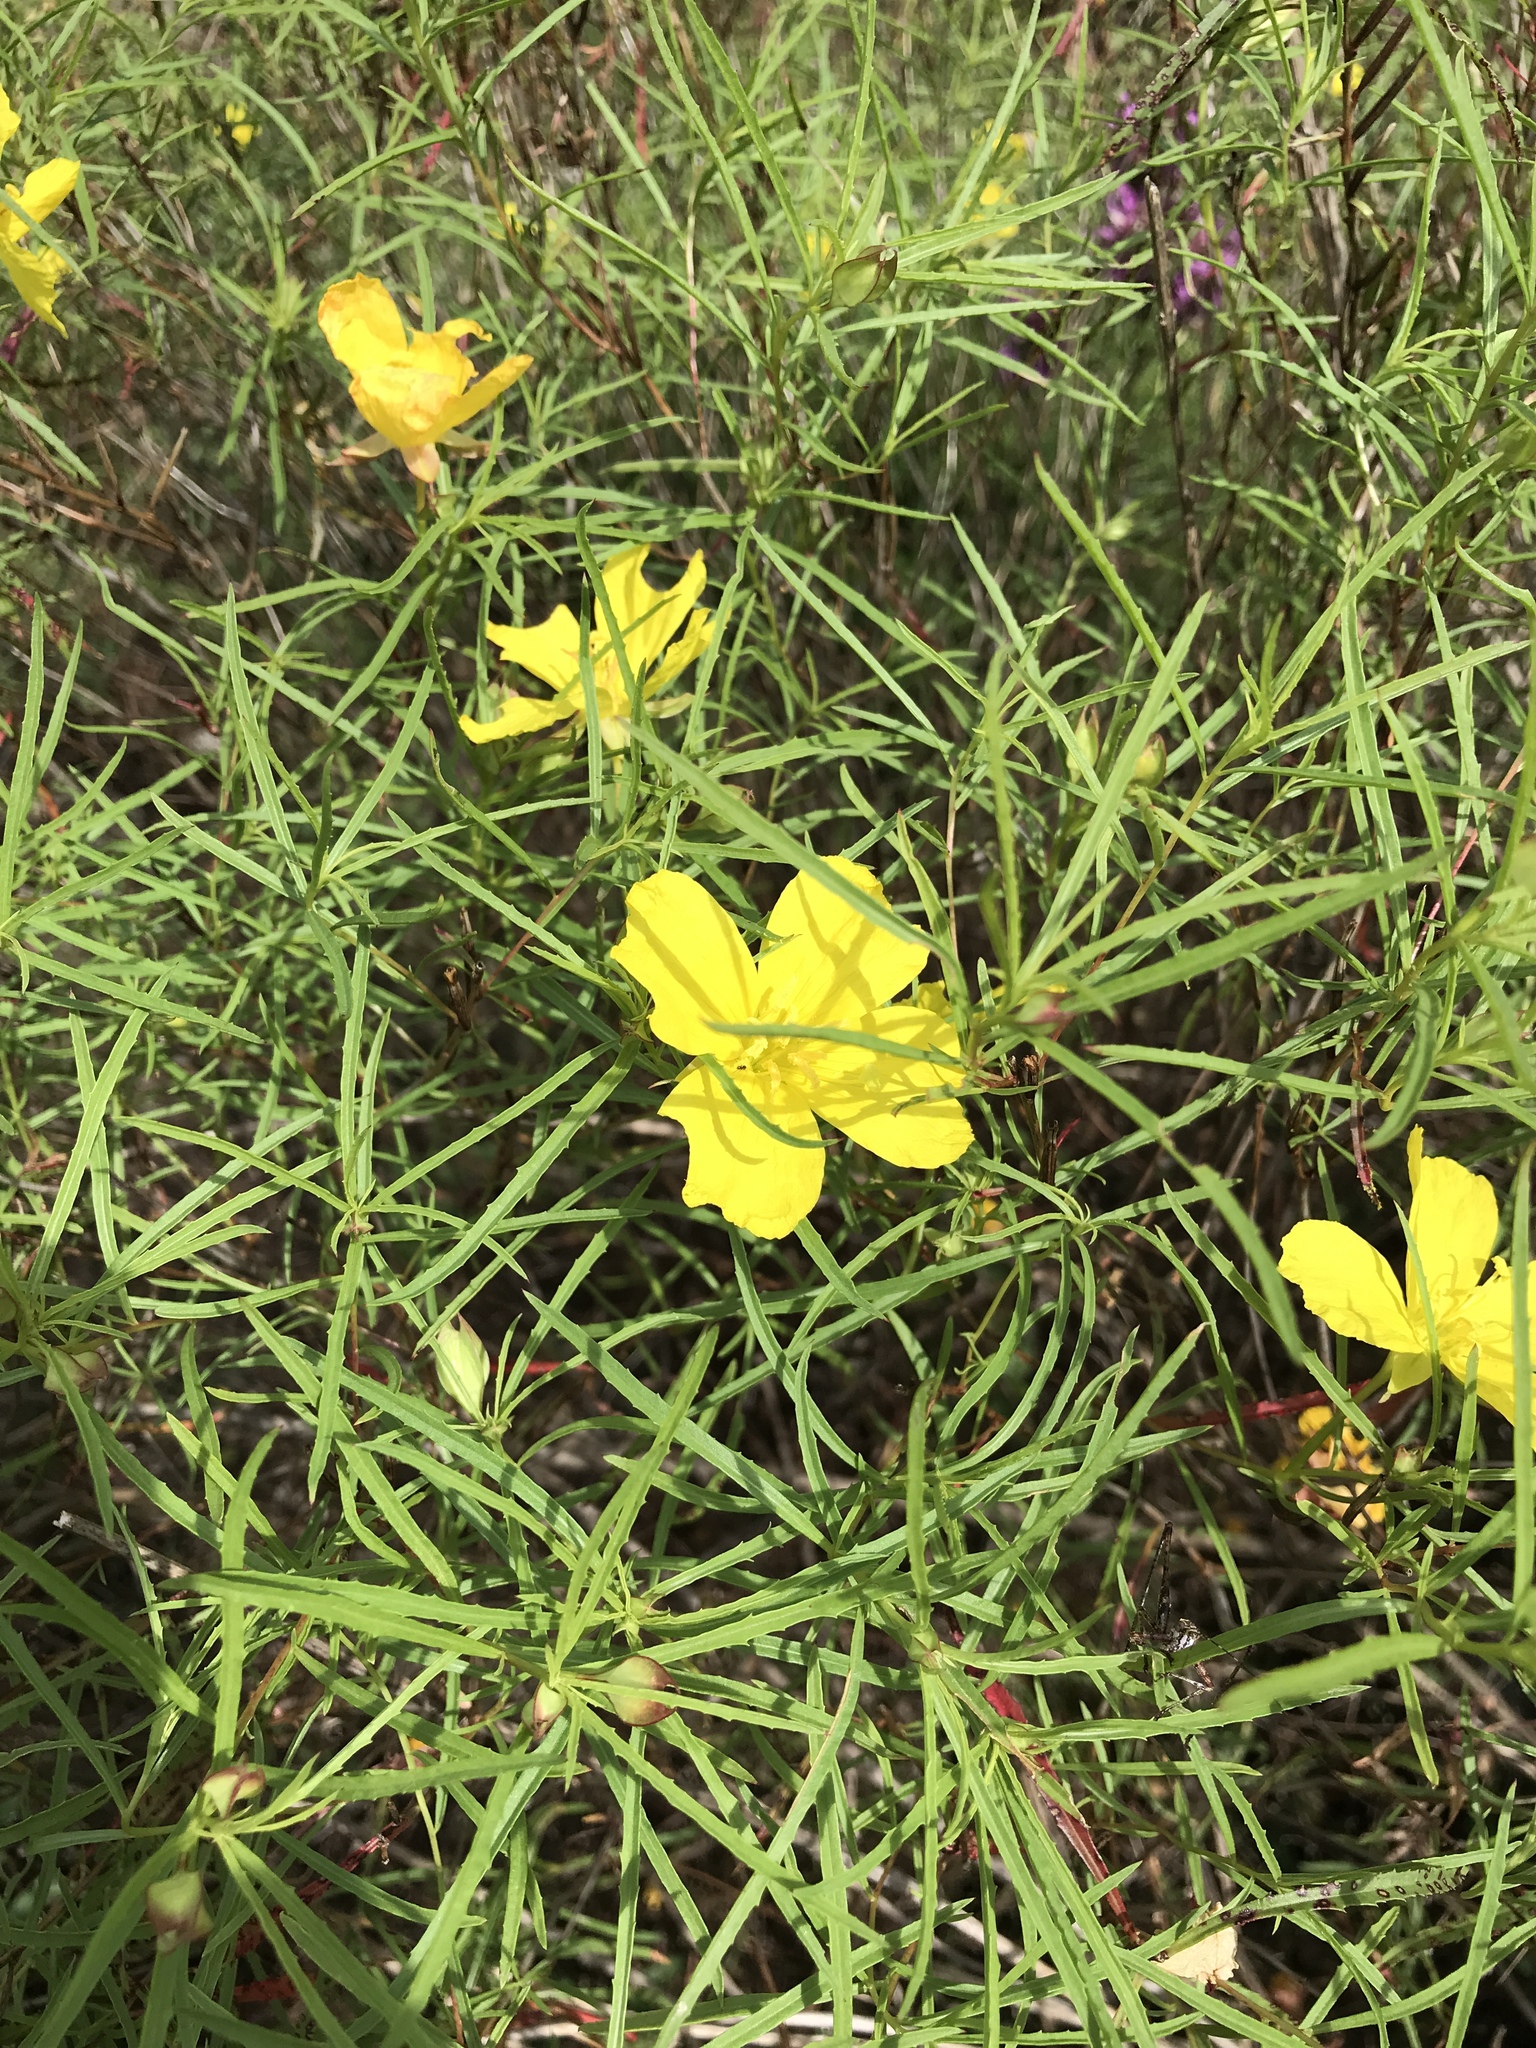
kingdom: Plantae
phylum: Tracheophyta
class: Magnoliopsida
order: Myrtales
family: Onagraceae
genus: Oenothera
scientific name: Oenothera
